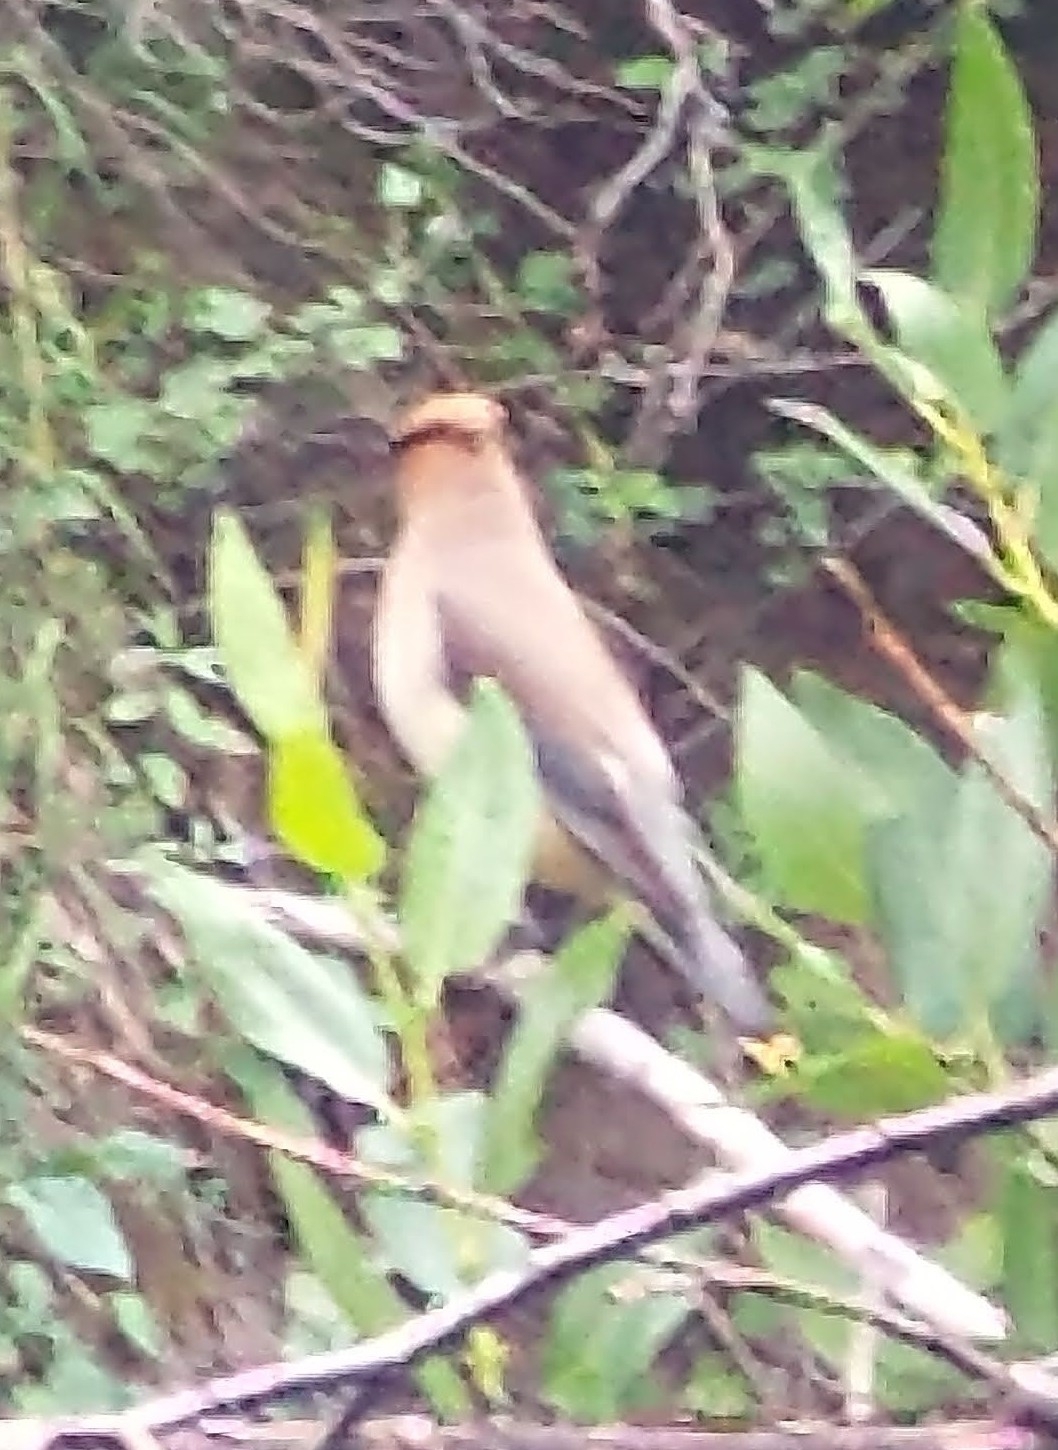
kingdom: Animalia
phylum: Chordata
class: Aves
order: Passeriformes
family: Bombycillidae
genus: Bombycilla
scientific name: Bombycilla cedrorum
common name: Cedar waxwing
